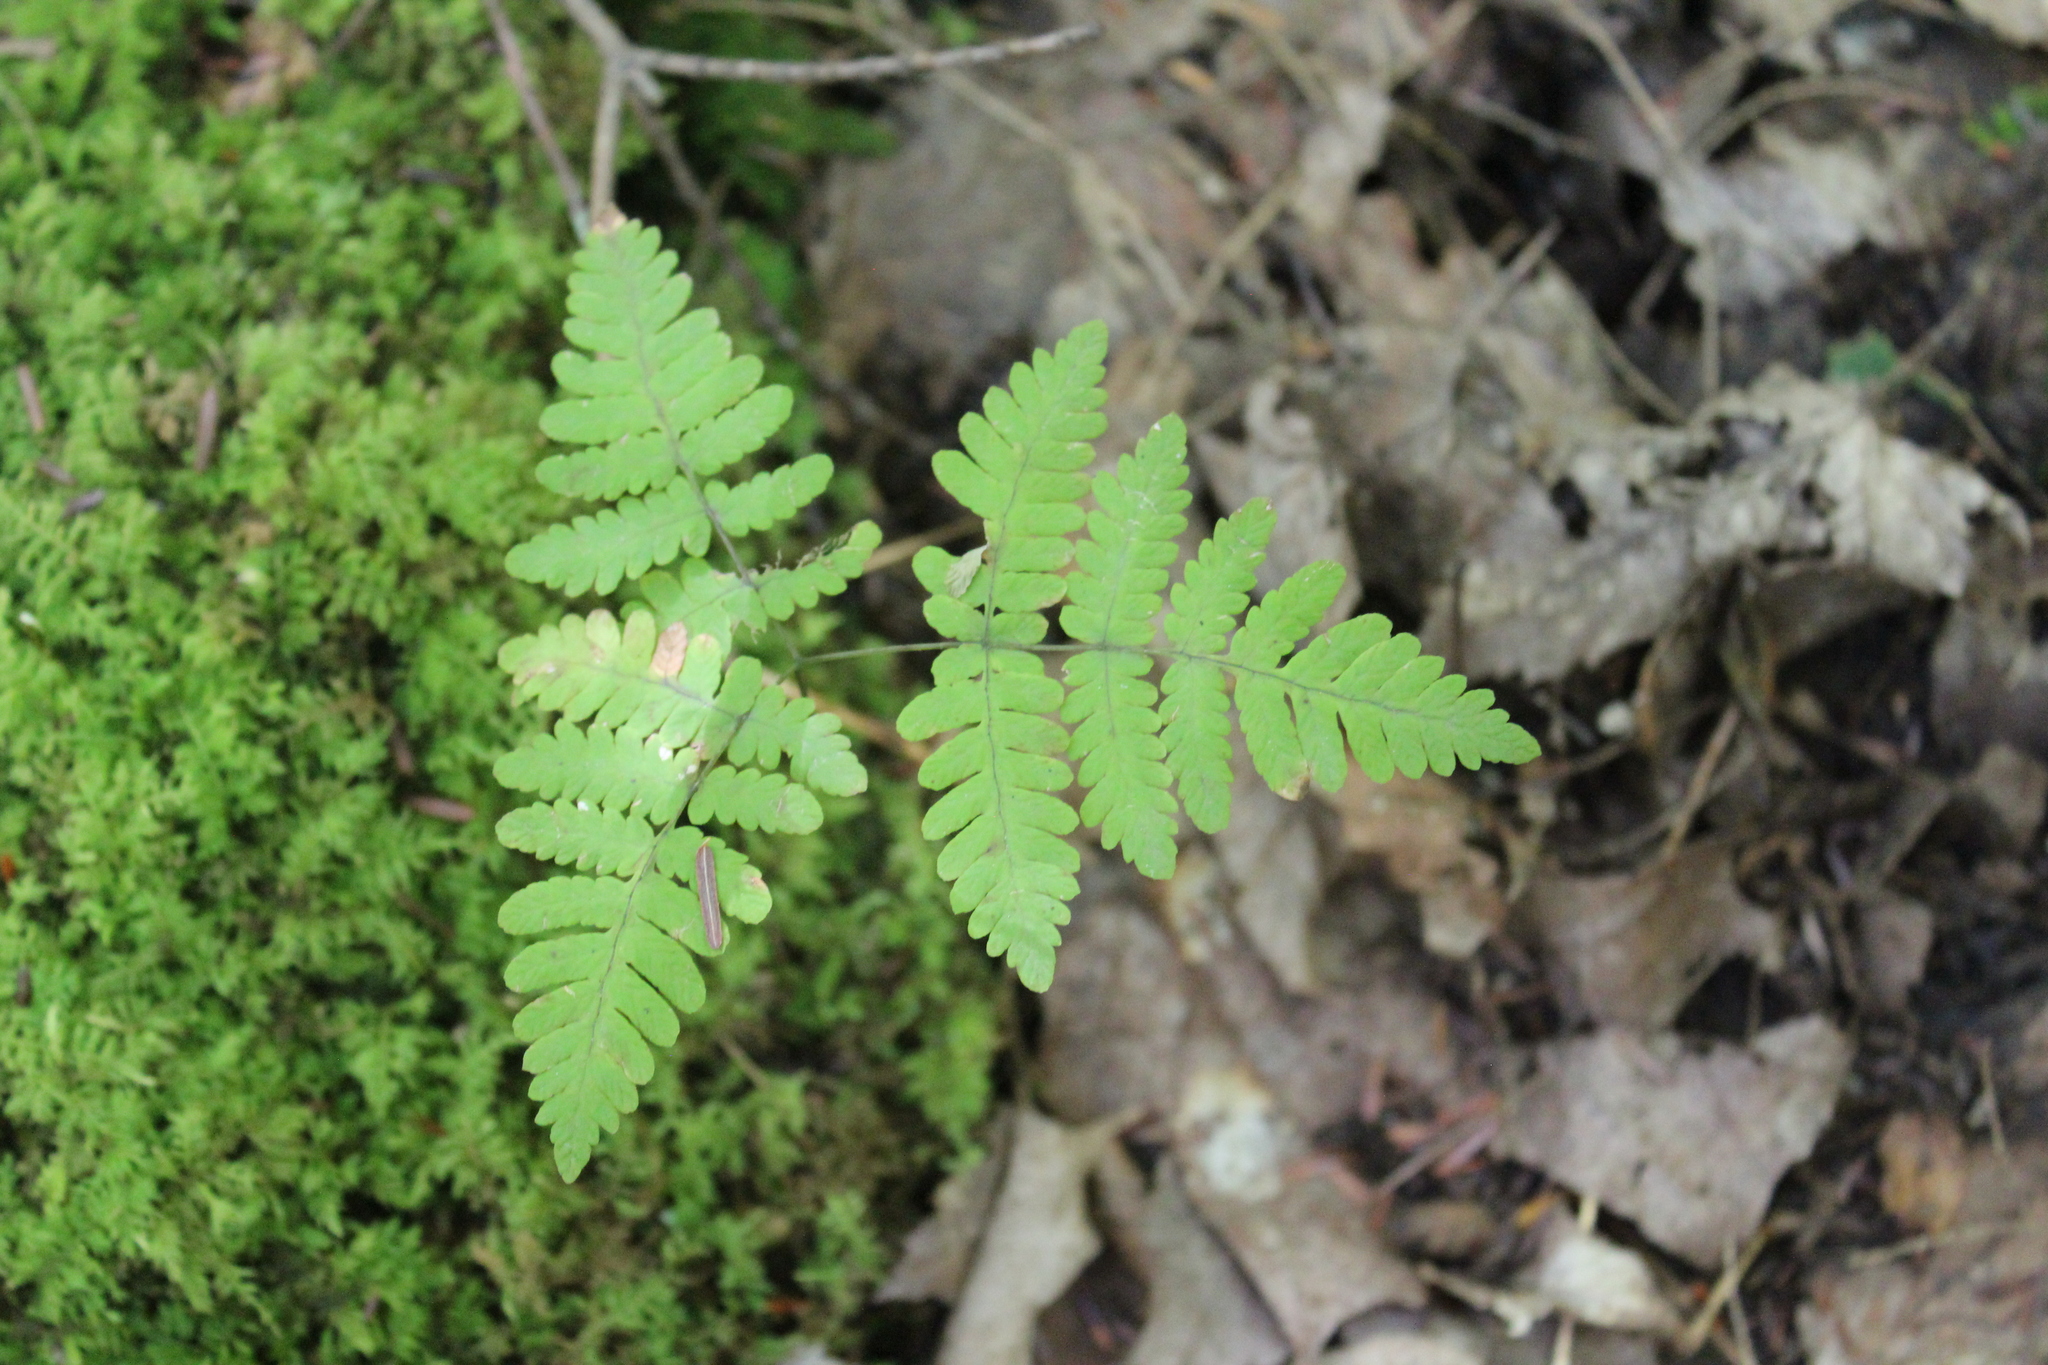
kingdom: Plantae
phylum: Tracheophyta
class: Polypodiopsida
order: Polypodiales
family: Cystopteridaceae
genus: Gymnocarpium
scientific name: Gymnocarpium dryopteris
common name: Oak fern
